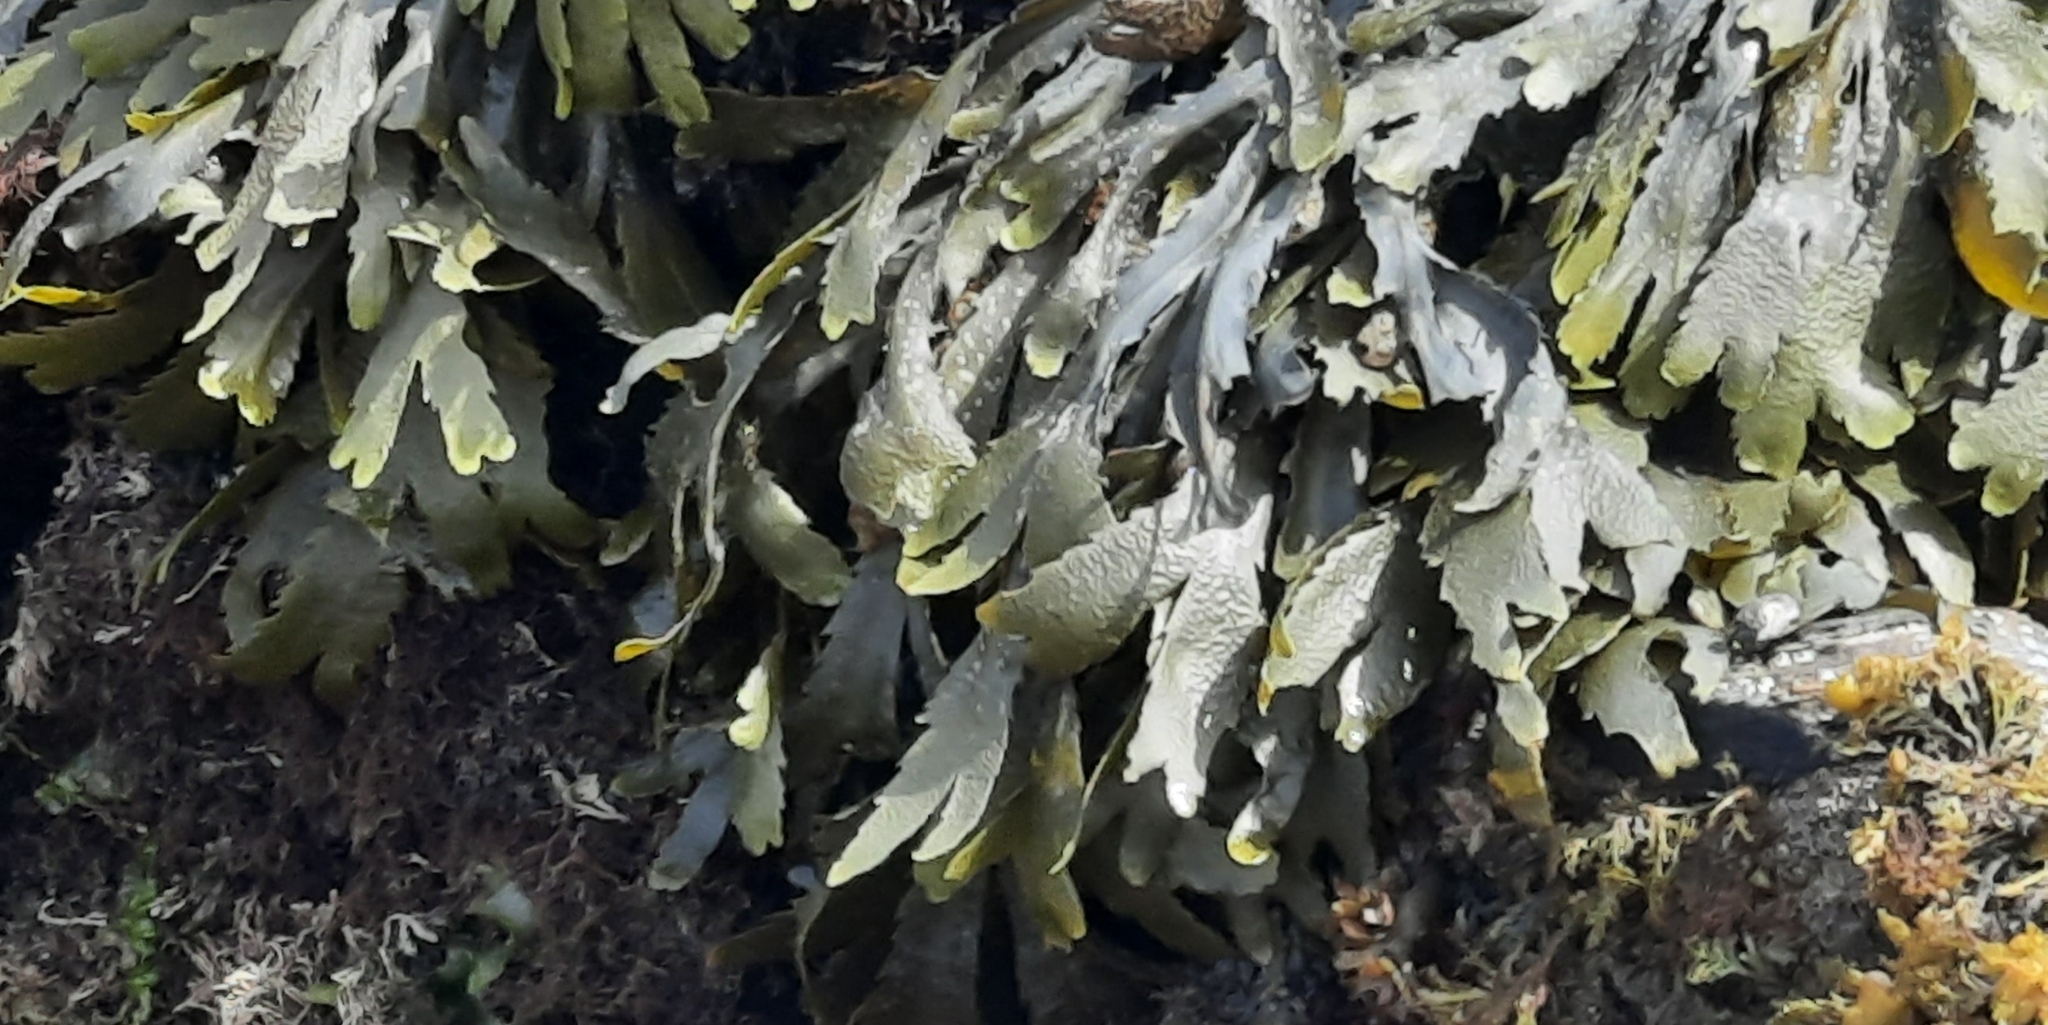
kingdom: Chromista
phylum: Ochrophyta
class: Phaeophyceae
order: Fucales
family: Fucaceae
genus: Fucus
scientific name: Fucus serratus
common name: Toothed wrack
